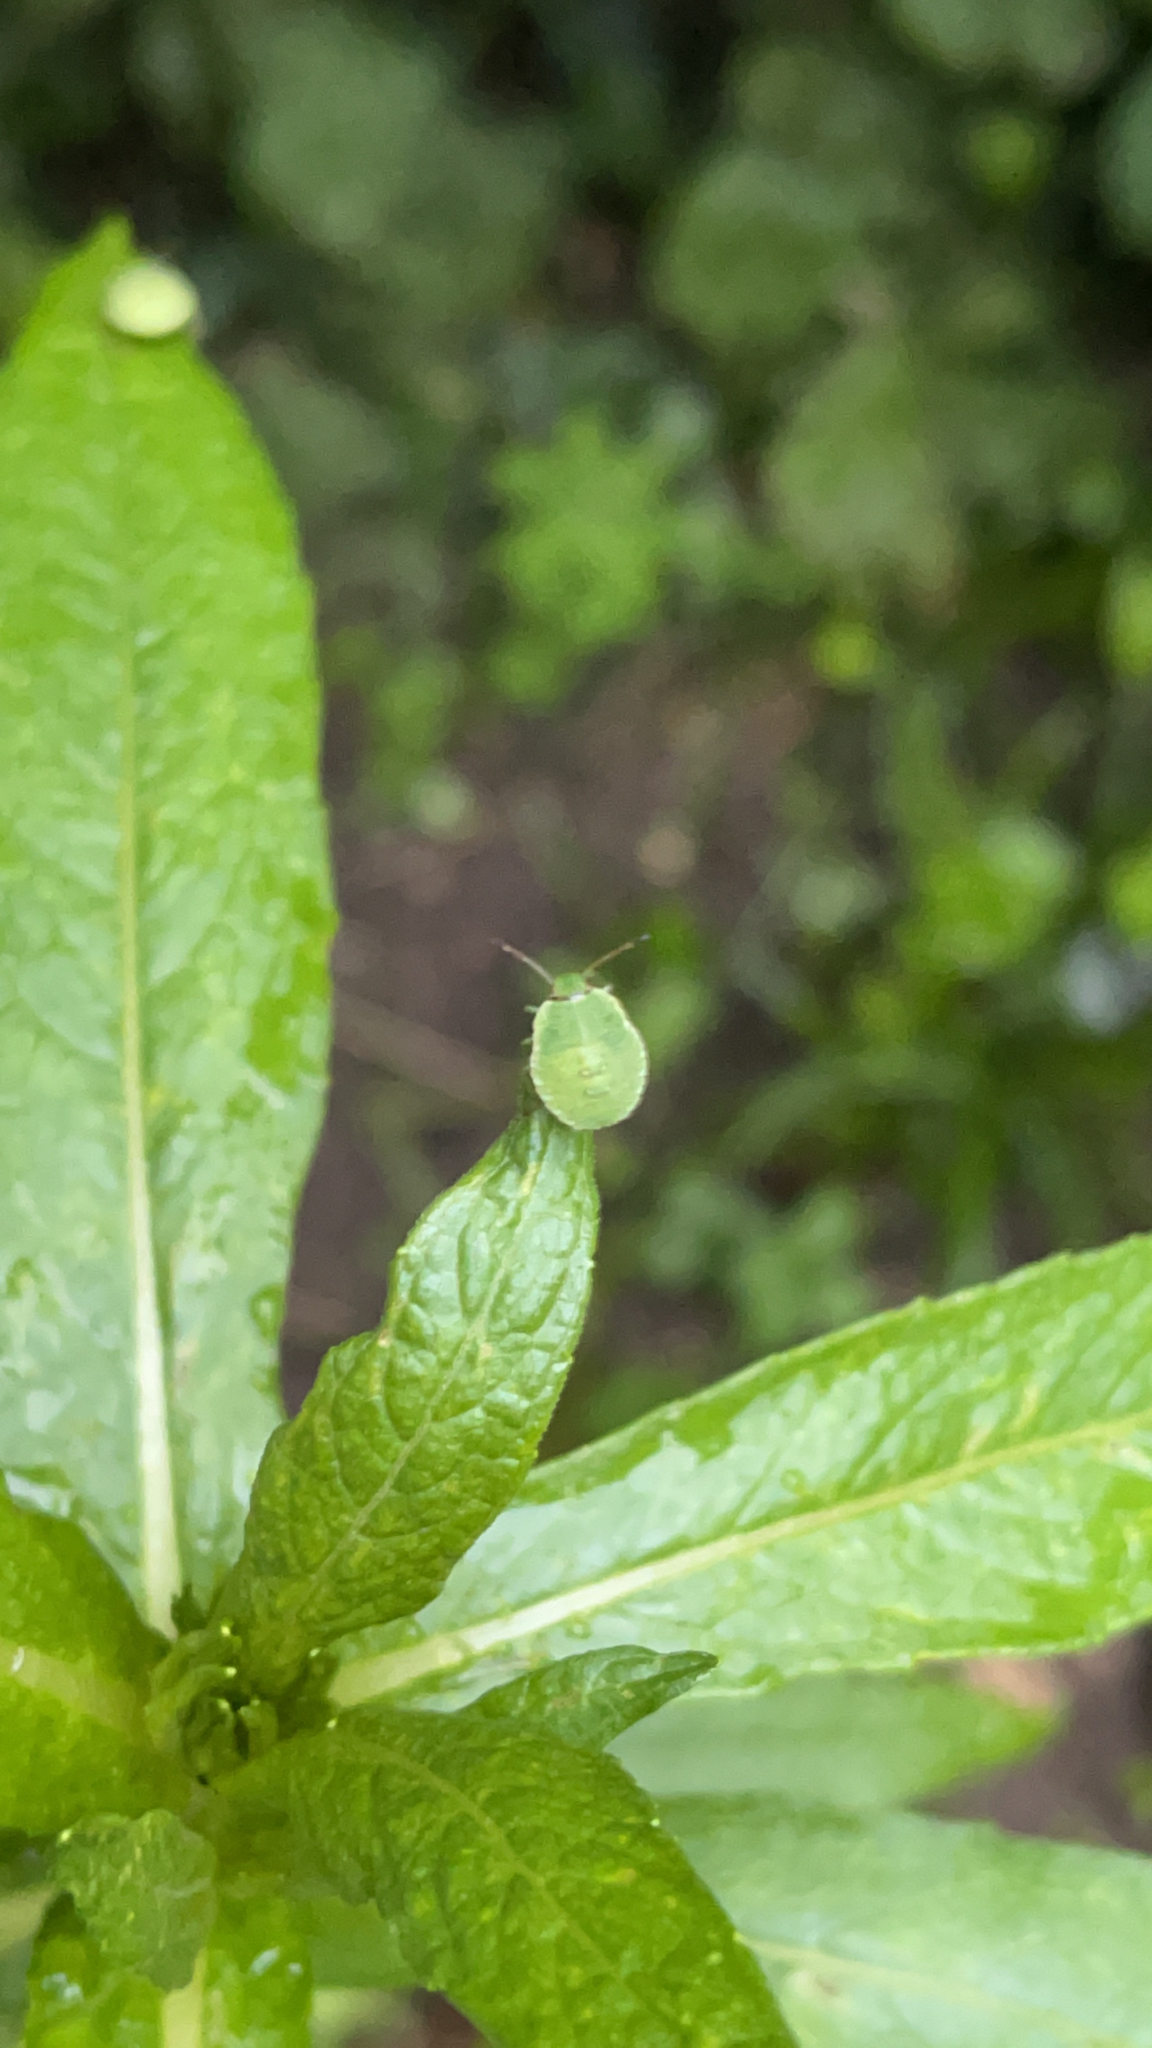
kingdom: Animalia
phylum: Arthropoda
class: Insecta
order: Hemiptera
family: Pentatomidae
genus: Palomena
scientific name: Palomena prasina
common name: Green shieldbug
